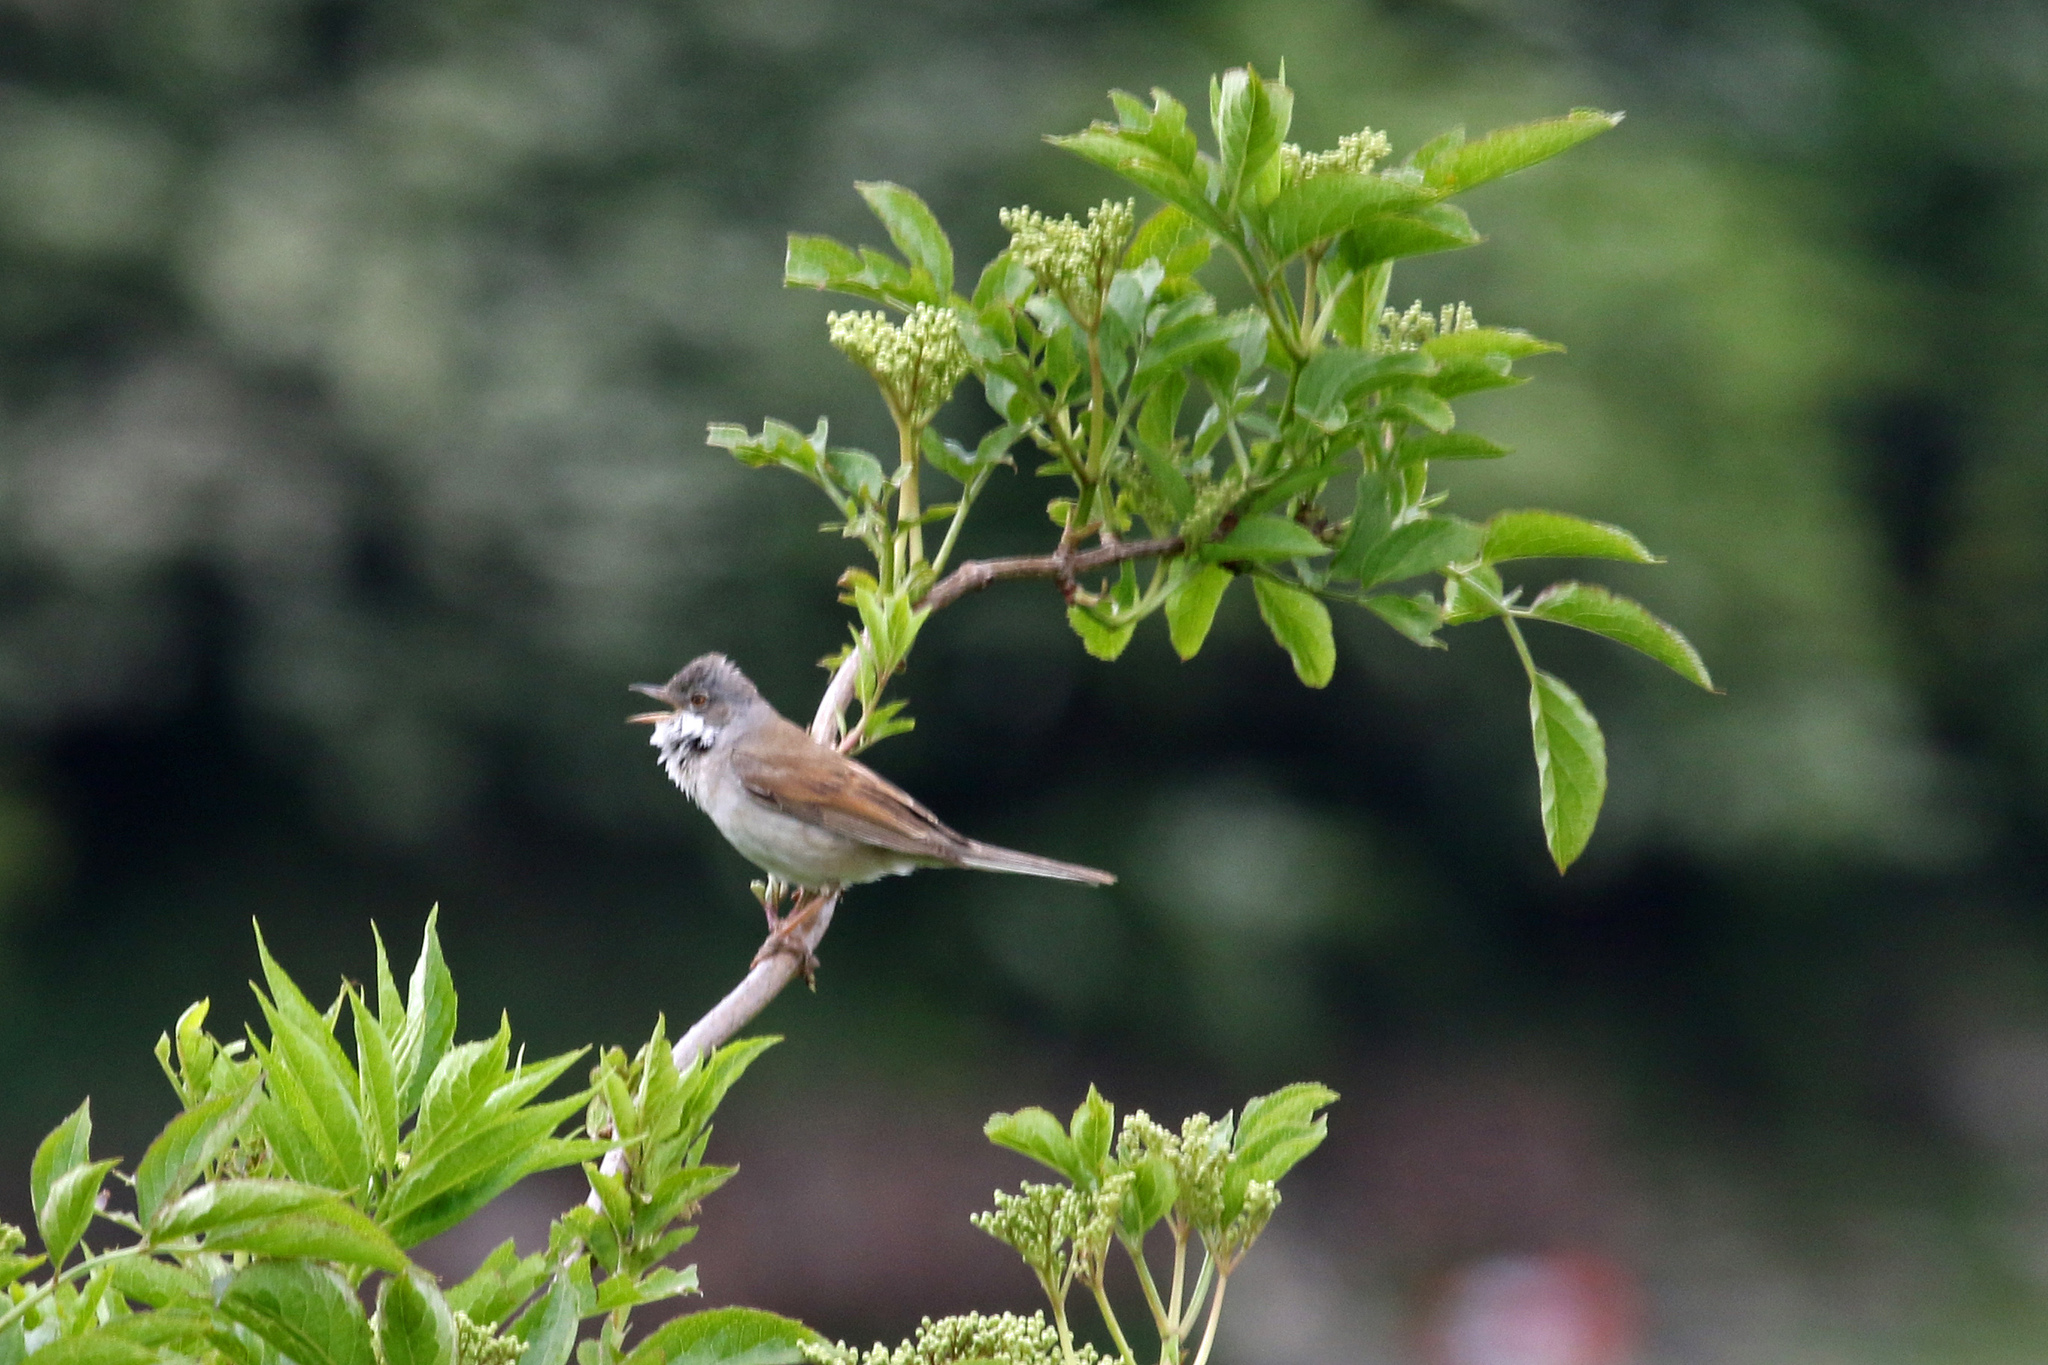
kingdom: Animalia
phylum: Chordata
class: Aves
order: Passeriformes
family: Sylviidae
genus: Sylvia
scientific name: Sylvia communis
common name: Common whitethroat
